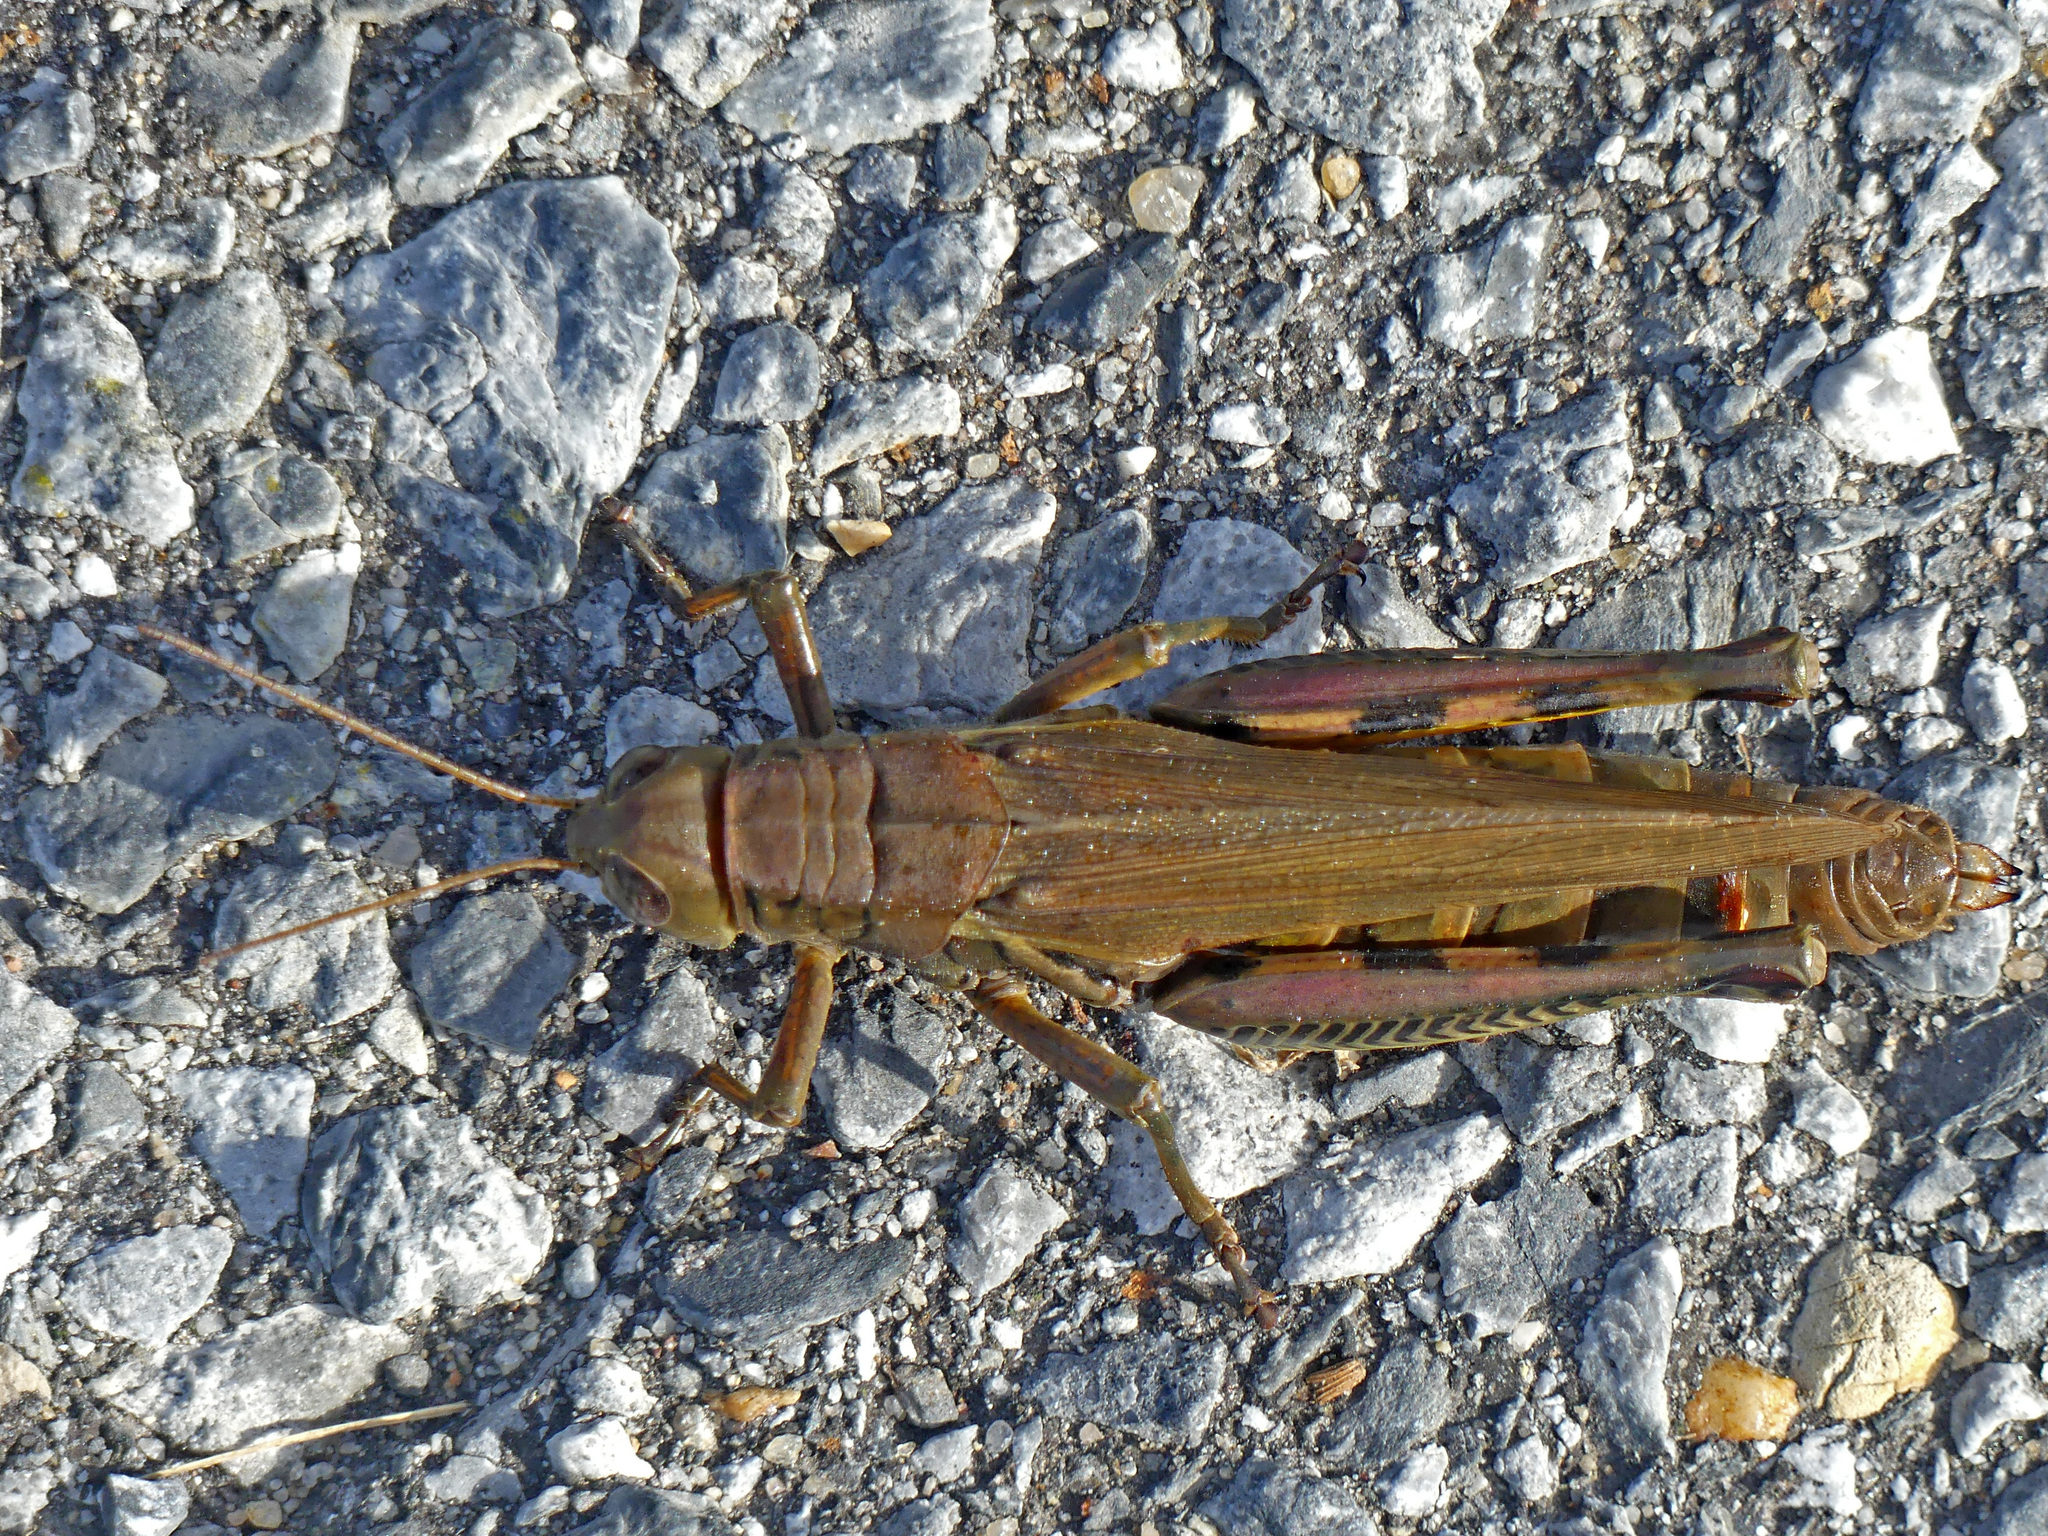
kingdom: Animalia
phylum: Arthropoda
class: Insecta
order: Orthoptera
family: Acrididae
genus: Melanoplus
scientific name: Melanoplus differentialis
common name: Differential grasshopper
